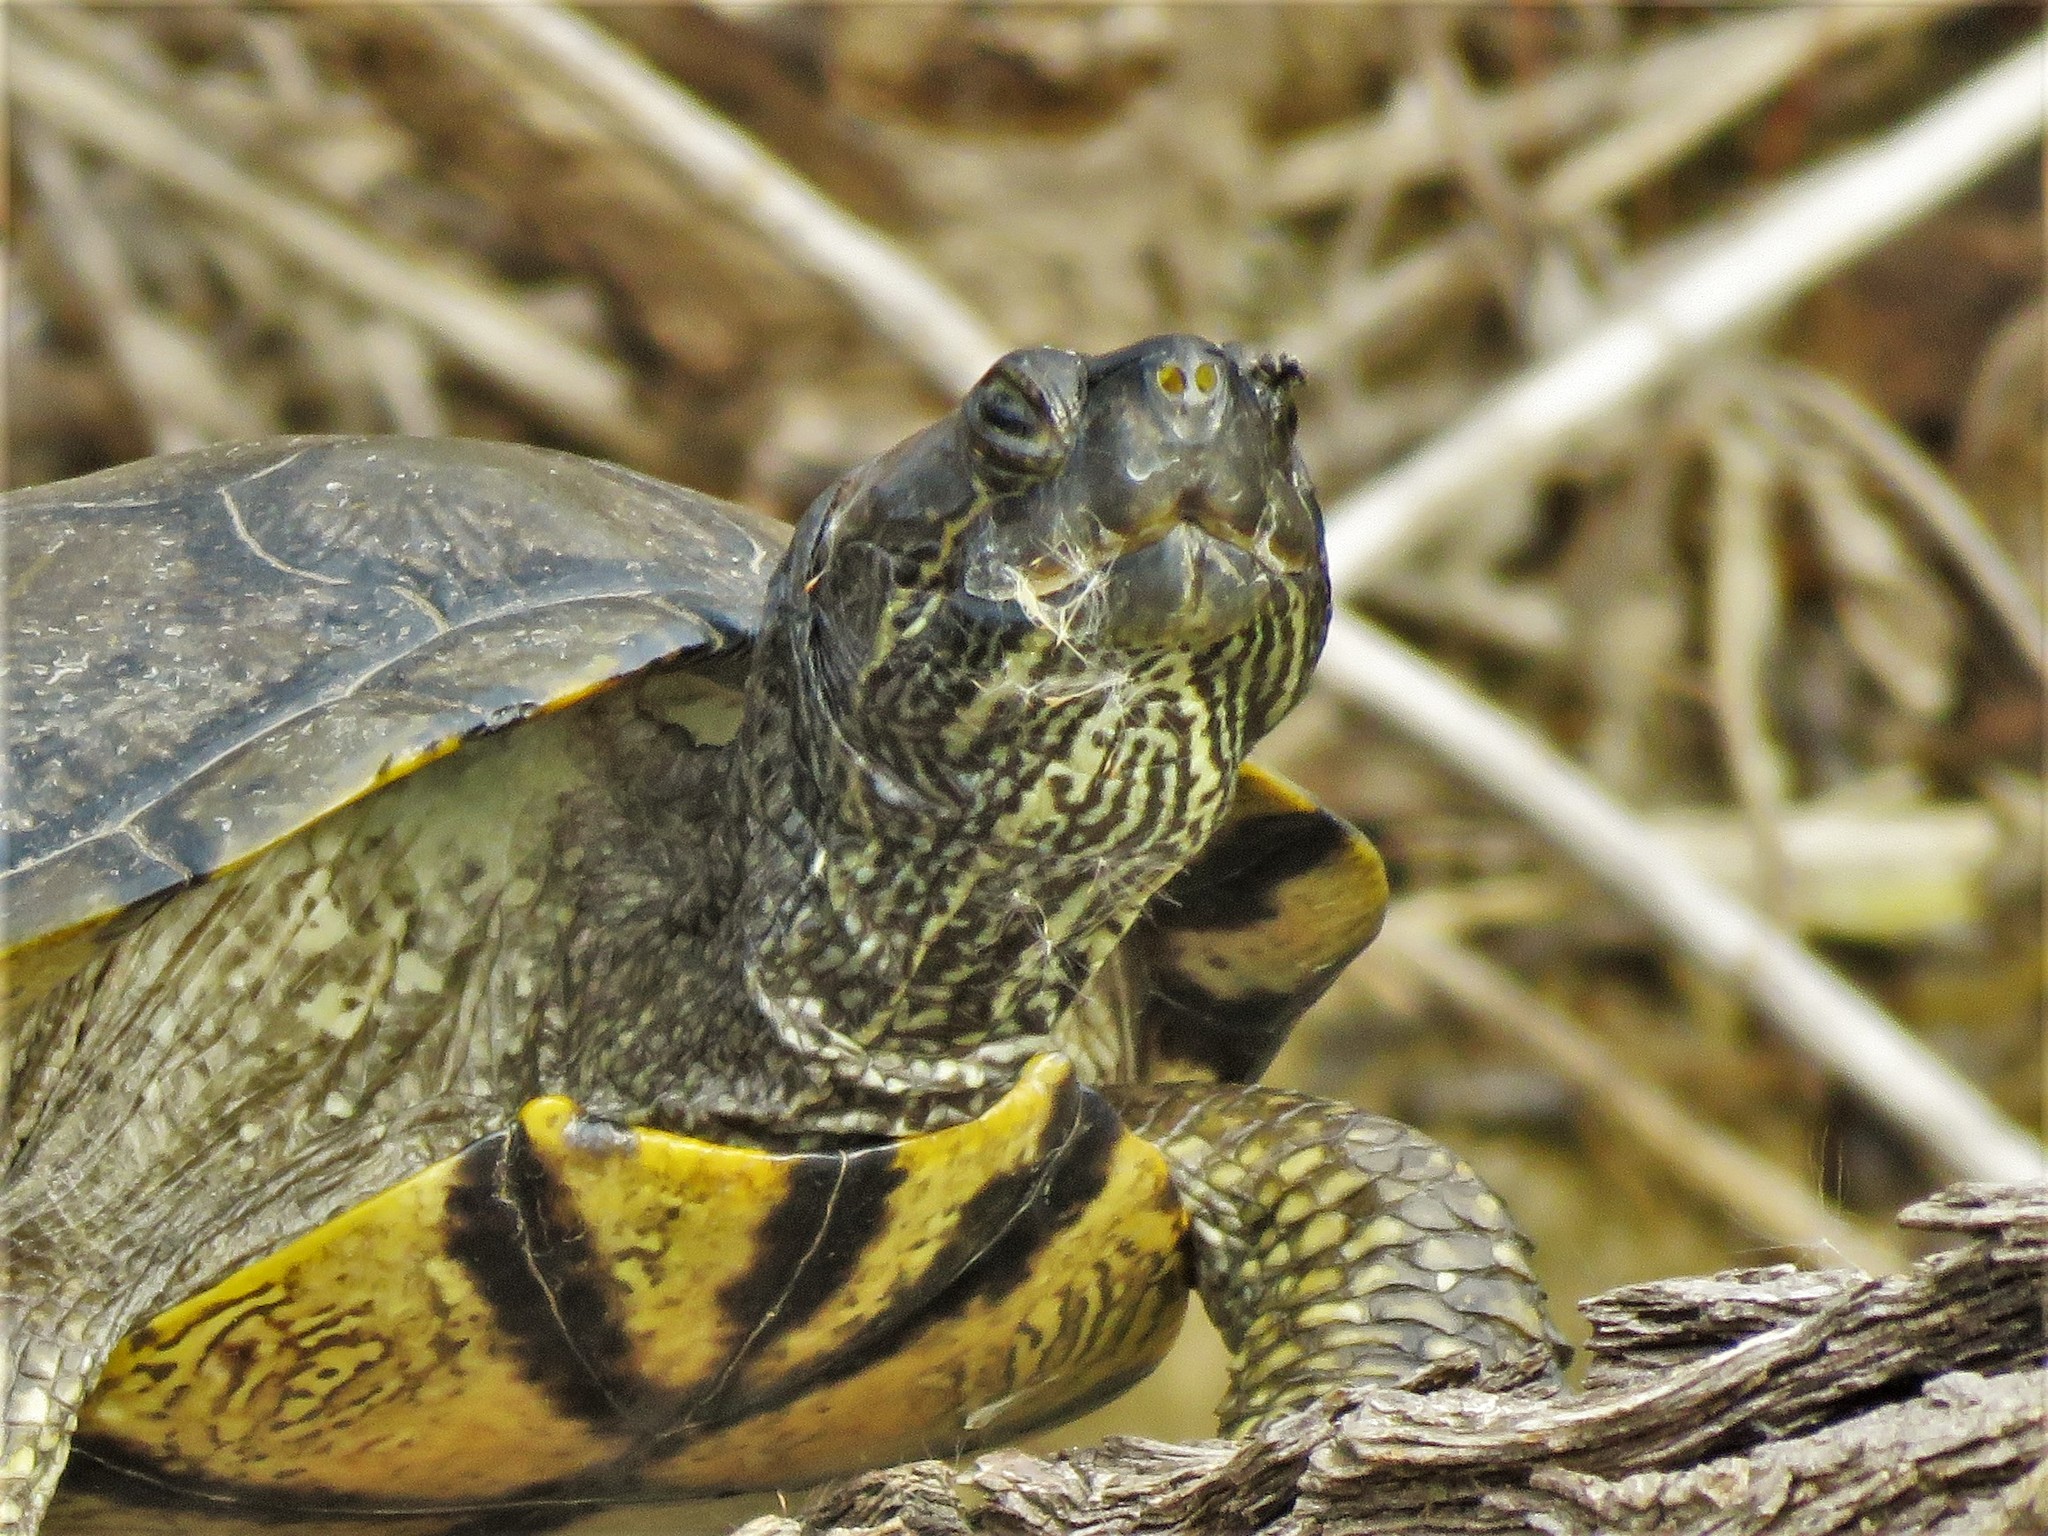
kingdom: Animalia
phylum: Chordata
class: Testudines
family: Emydidae
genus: Trachemys
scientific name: Trachemys scripta
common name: Slider
